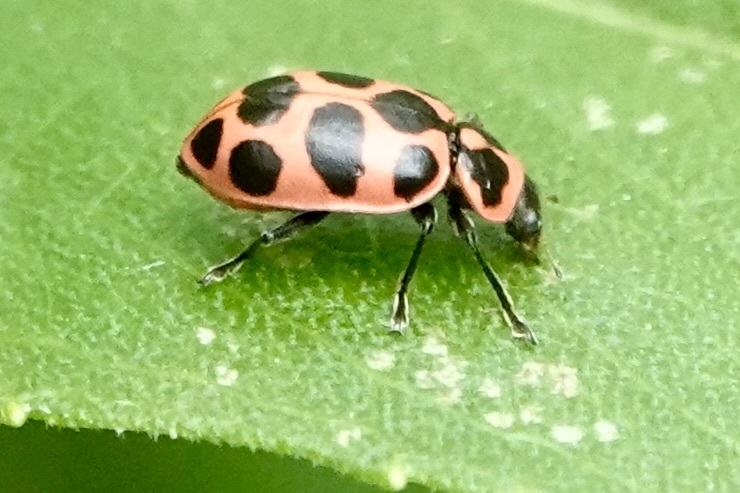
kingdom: Animalia
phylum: Arthropoda
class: Insecta
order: Coleoptera
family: Coccinellidae
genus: Coleomegilla
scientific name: Coleomegilla maculata
